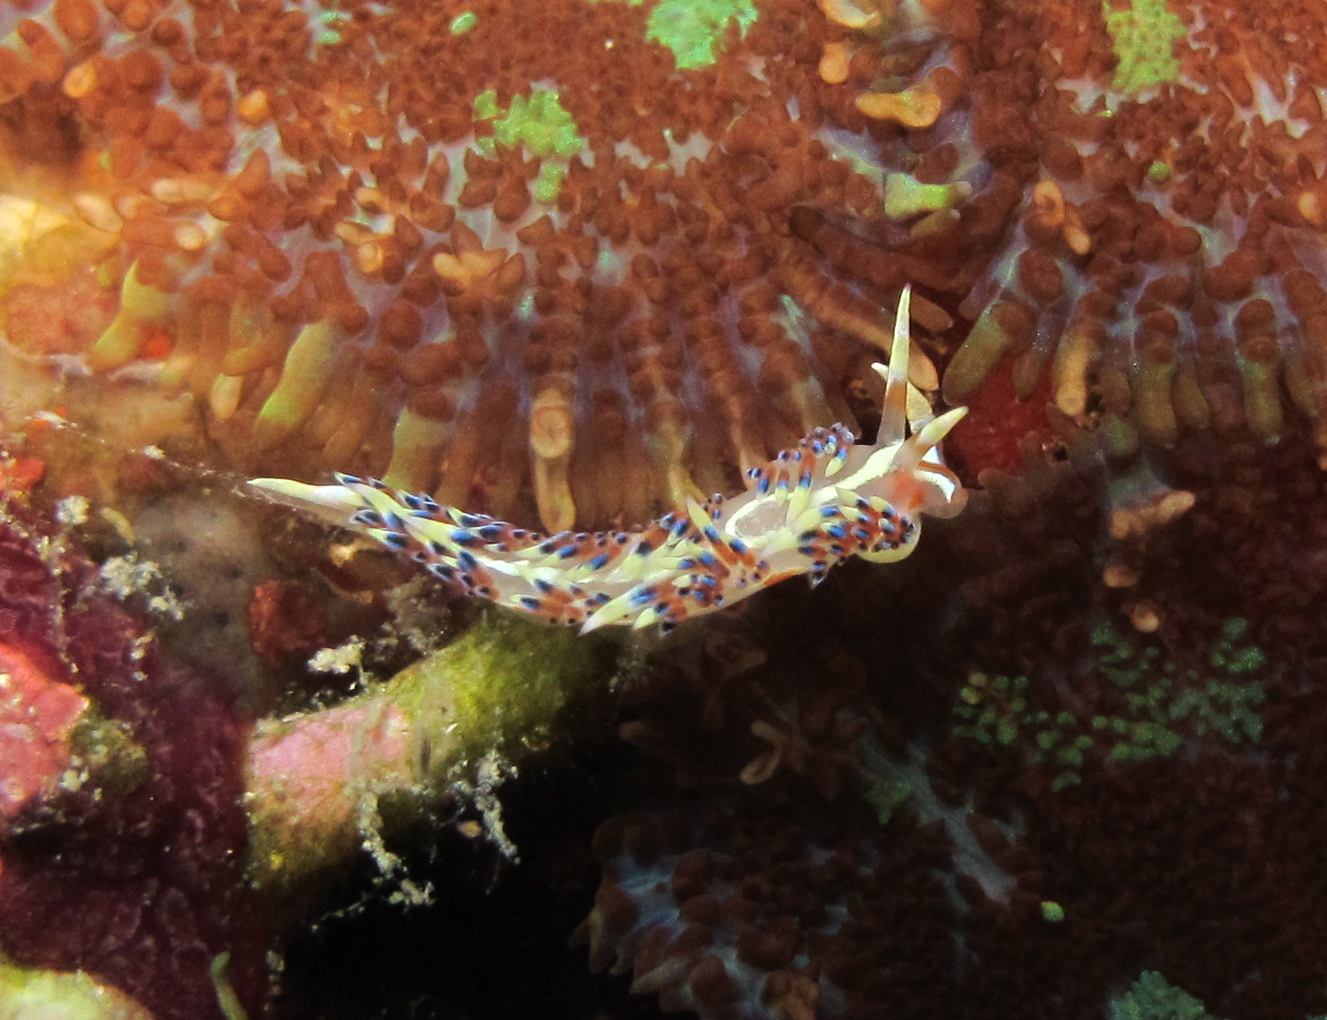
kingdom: Animalia
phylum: Mollusca
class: Gastropoda
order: Nudibranchia
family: Facelinidae
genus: Caloria
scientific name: Caloria indica
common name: Sea slug
